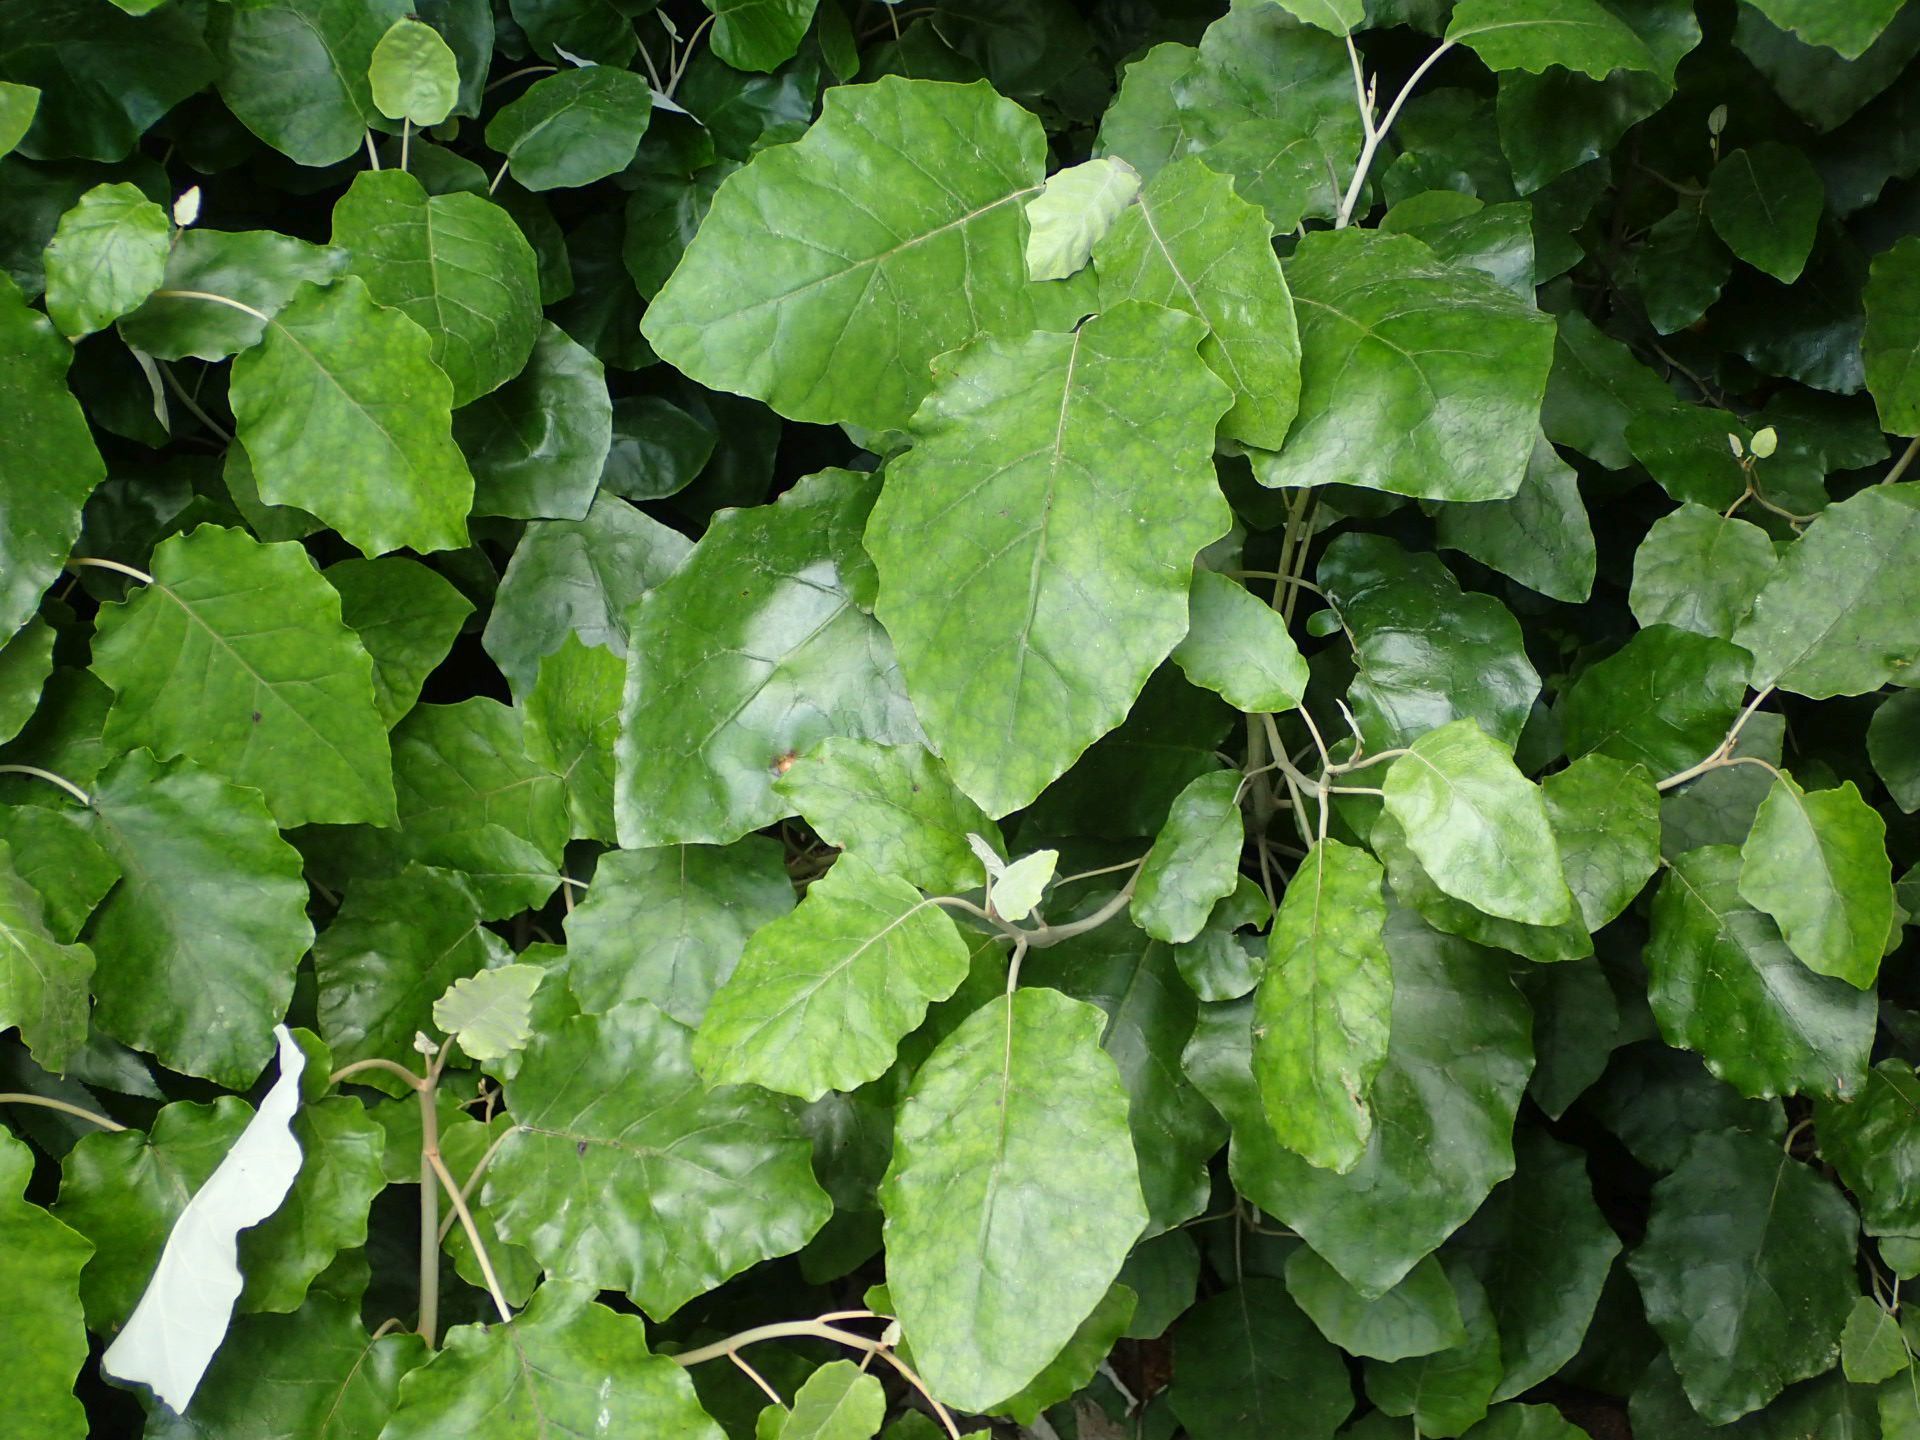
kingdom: Plantae
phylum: Tracheophyta
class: Magnoliopsida
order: Asterales
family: Asteraceae
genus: Brachyglottis
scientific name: Brachyglottis repanda
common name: Hedge ragwort
